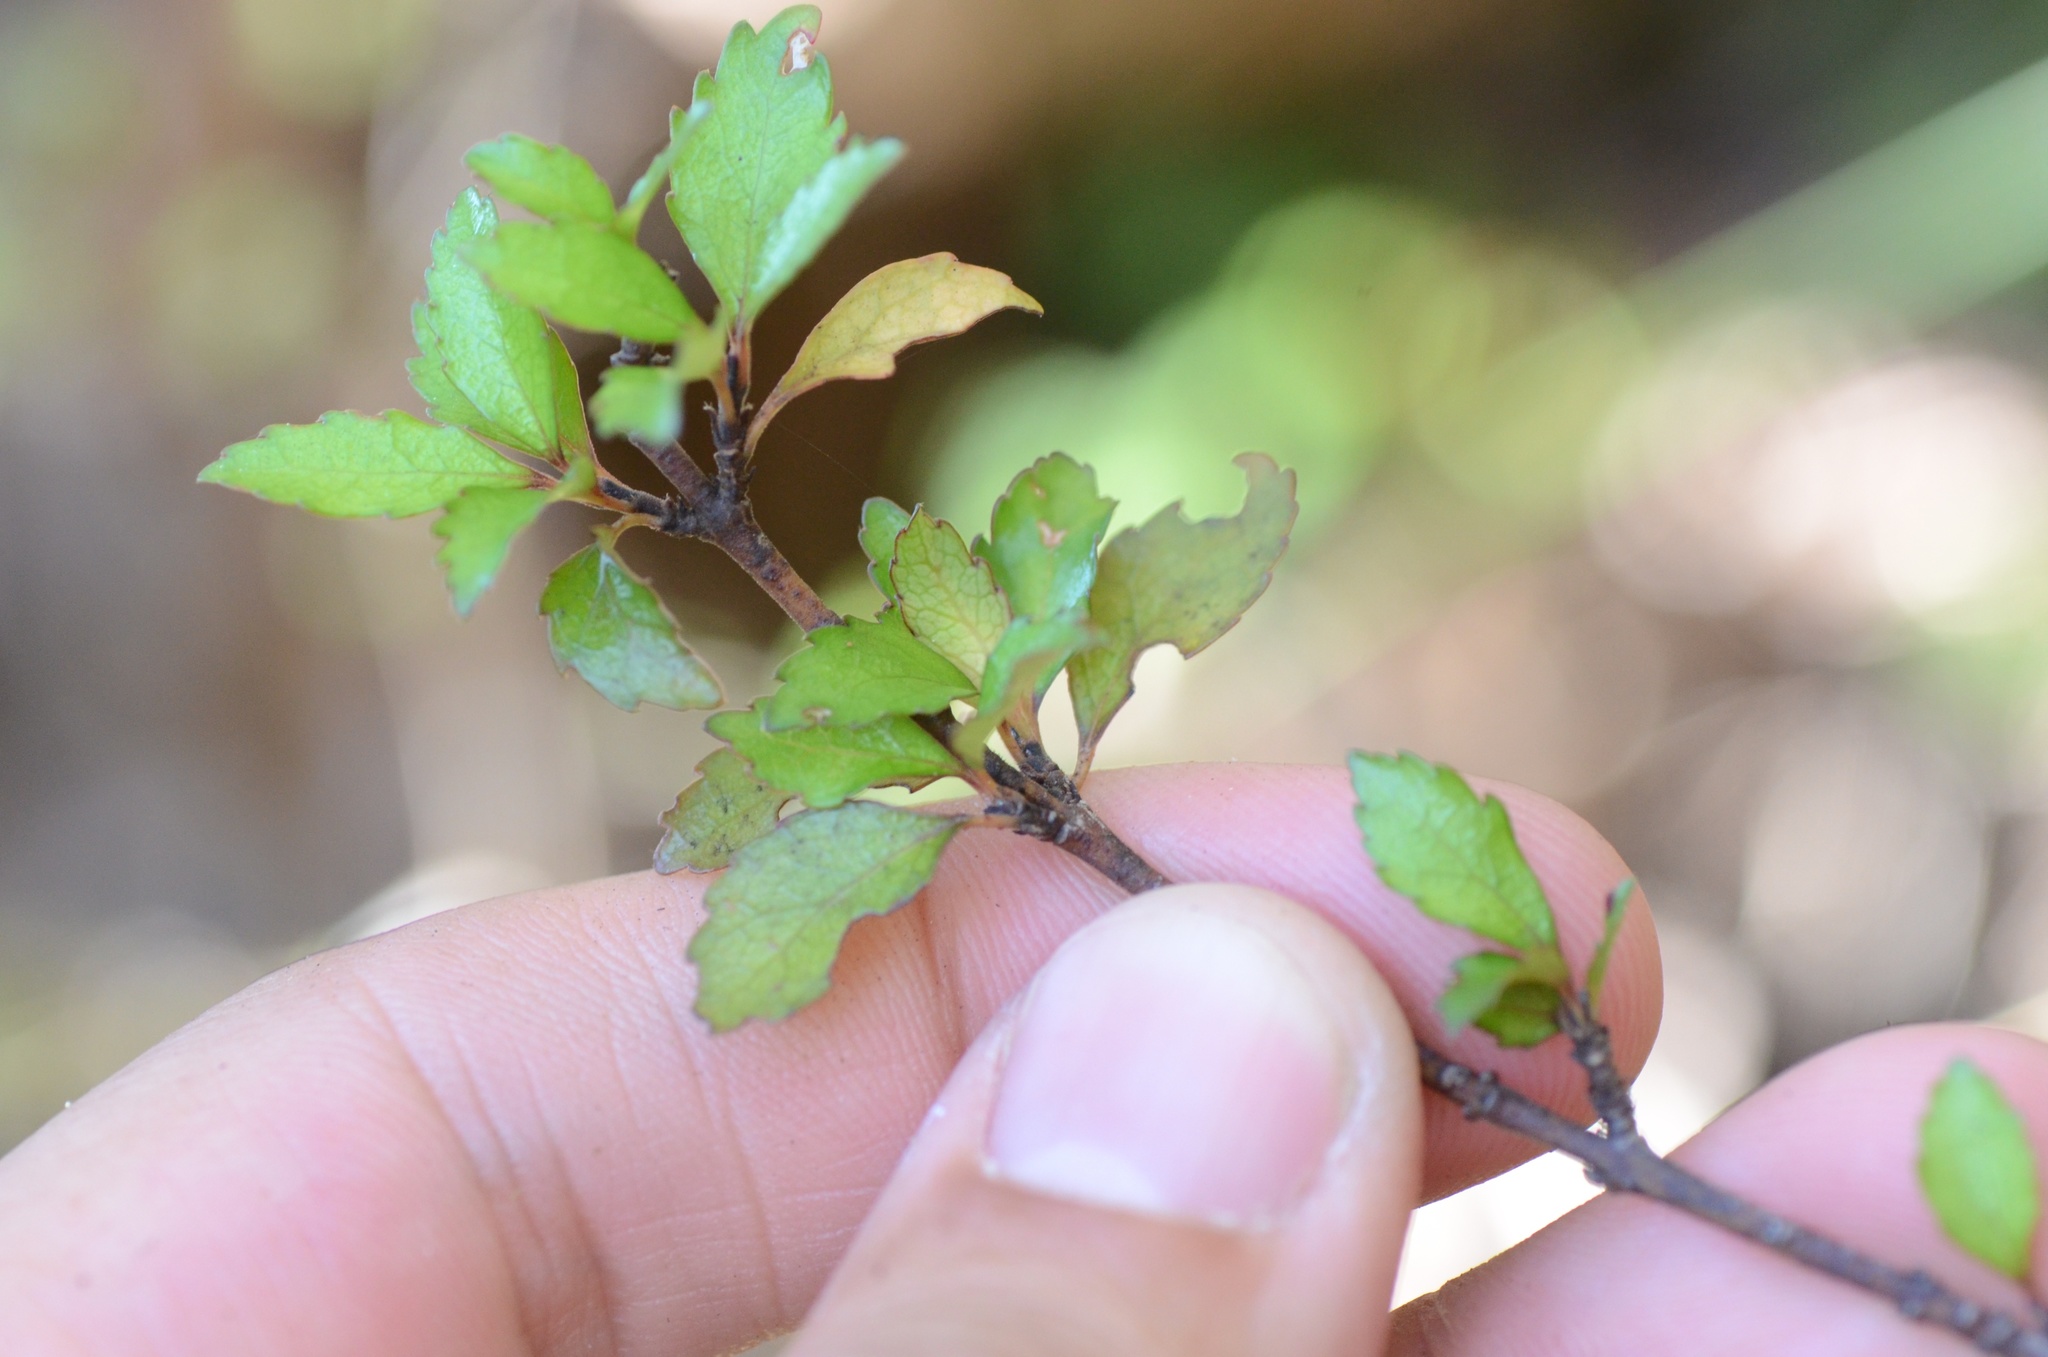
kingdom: Plantae
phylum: Tracheophyta
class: Magnoliopsida
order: Oxalidales
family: Elaeocarpaceae
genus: Aristotelia
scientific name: Aristotelia fruticosa
